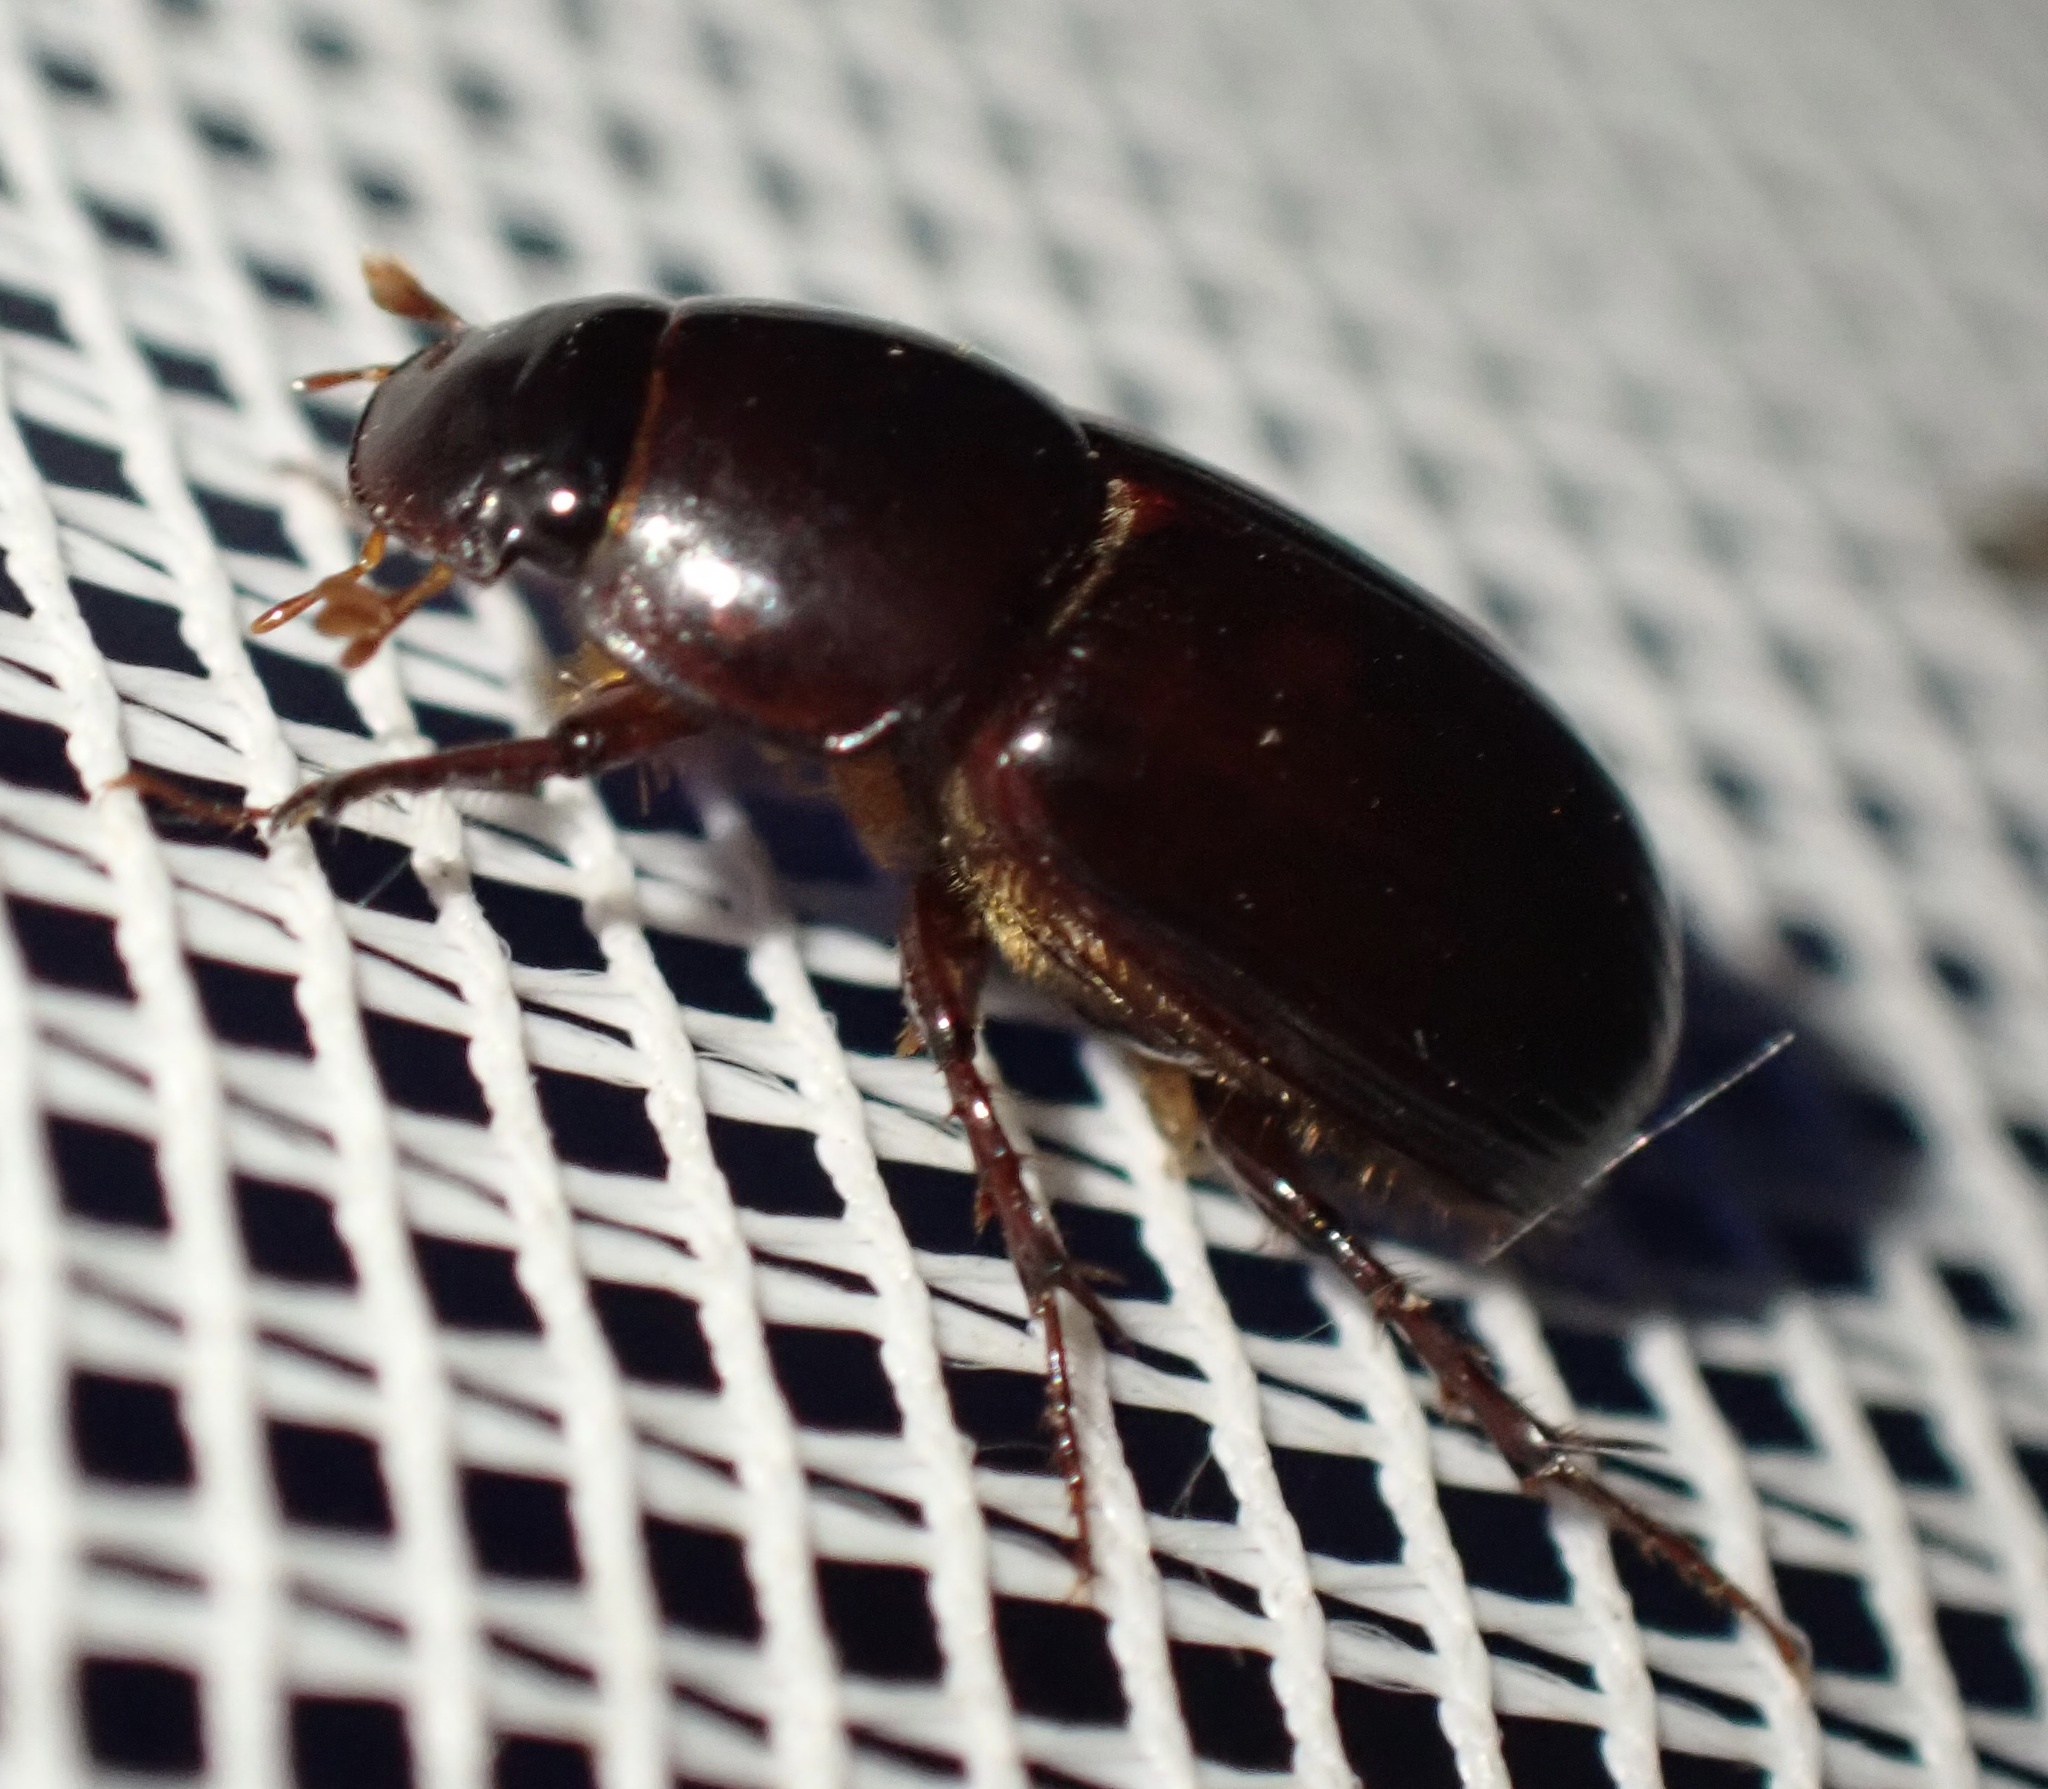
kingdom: Animalia
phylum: Arthropoda
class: Insecta
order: Coleoptera
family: Scarabaeidae
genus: Acrossus
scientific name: Acrossus rufipes
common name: Night-flying dung beetle
